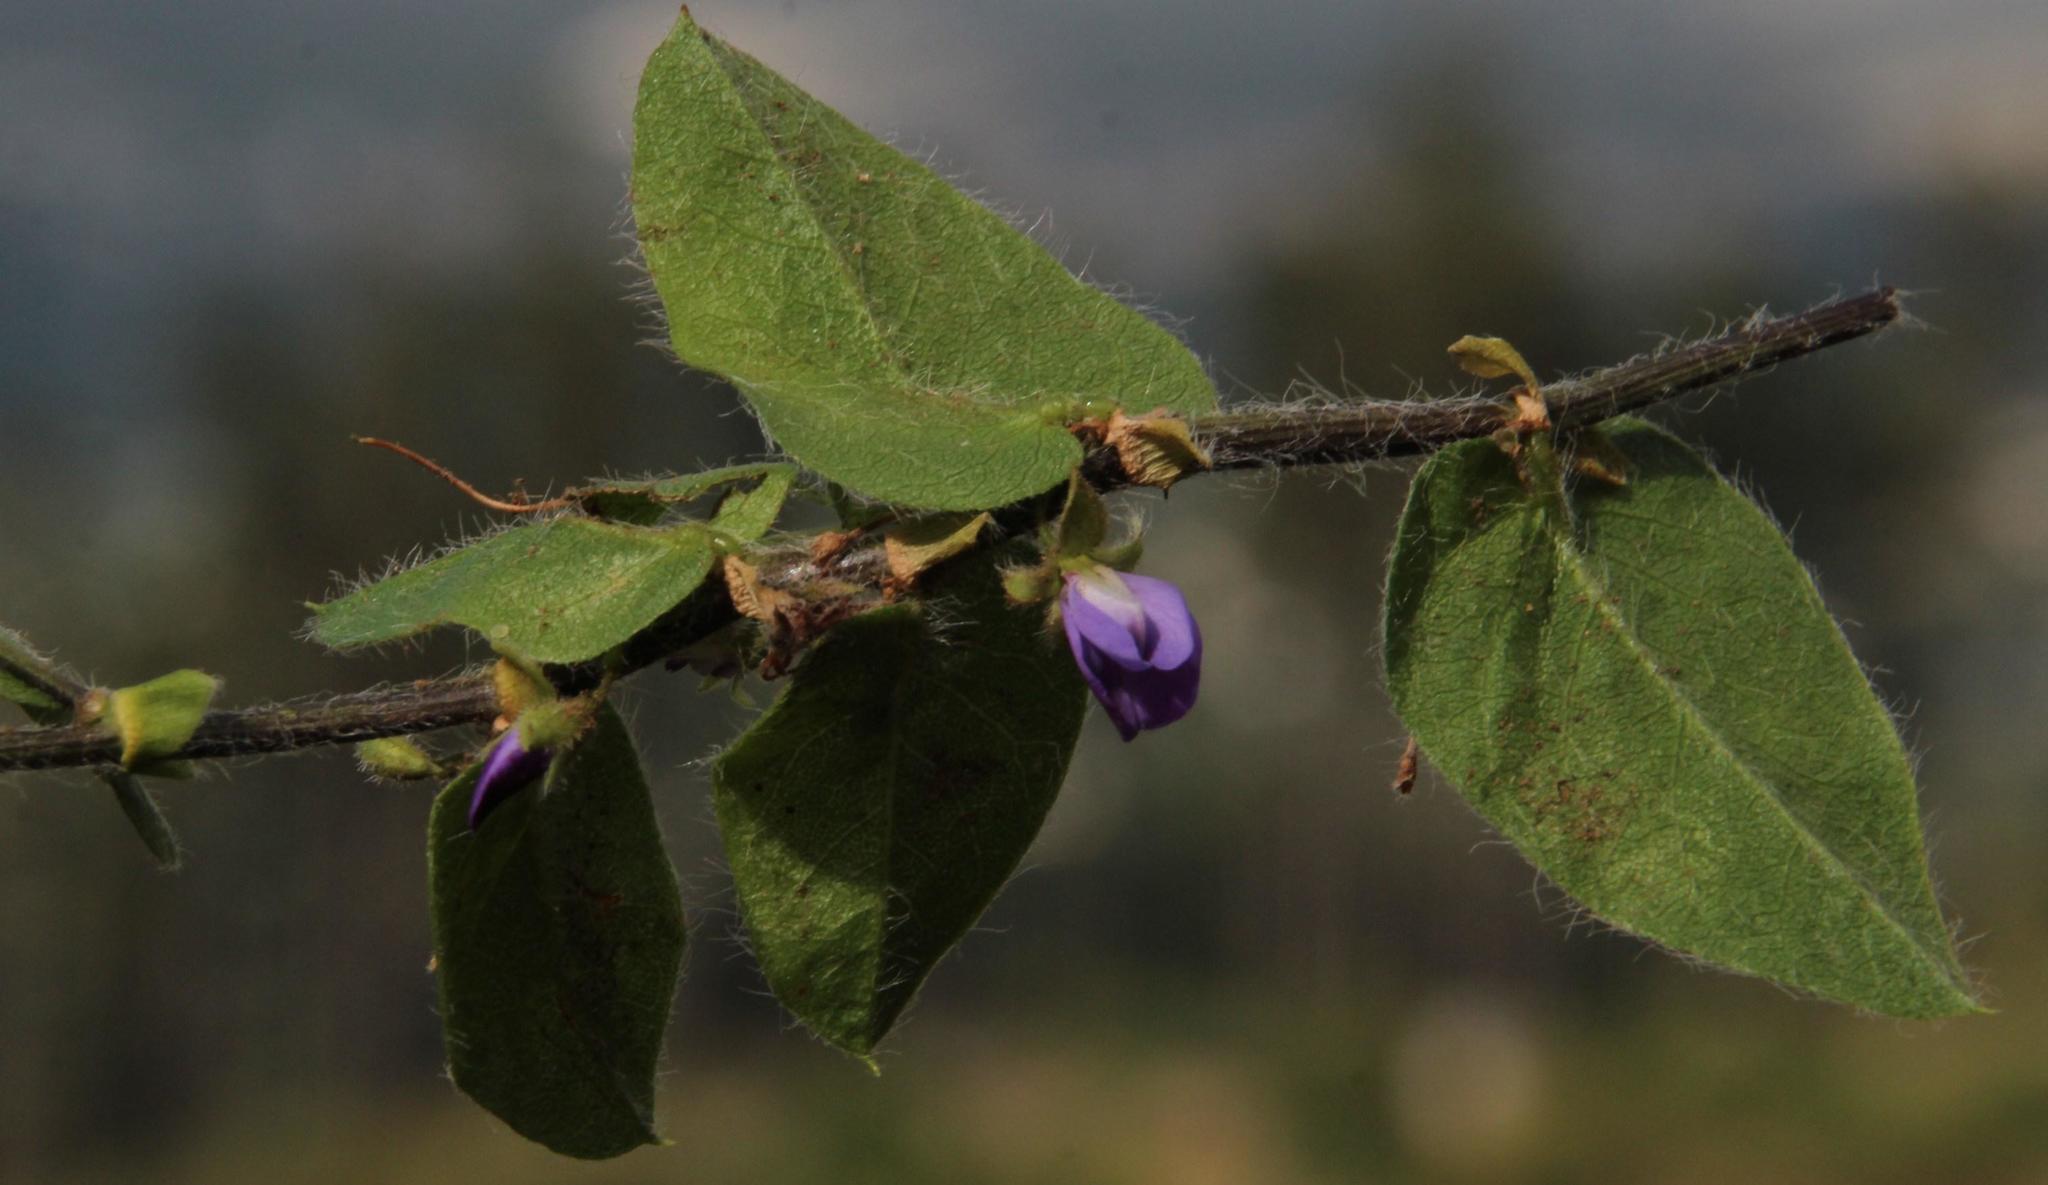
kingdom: Plantae
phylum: Tracheophyta
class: Magnoliopsida
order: Fabales
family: Fabaceae
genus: Psoralea
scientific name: Psoralea asarina
